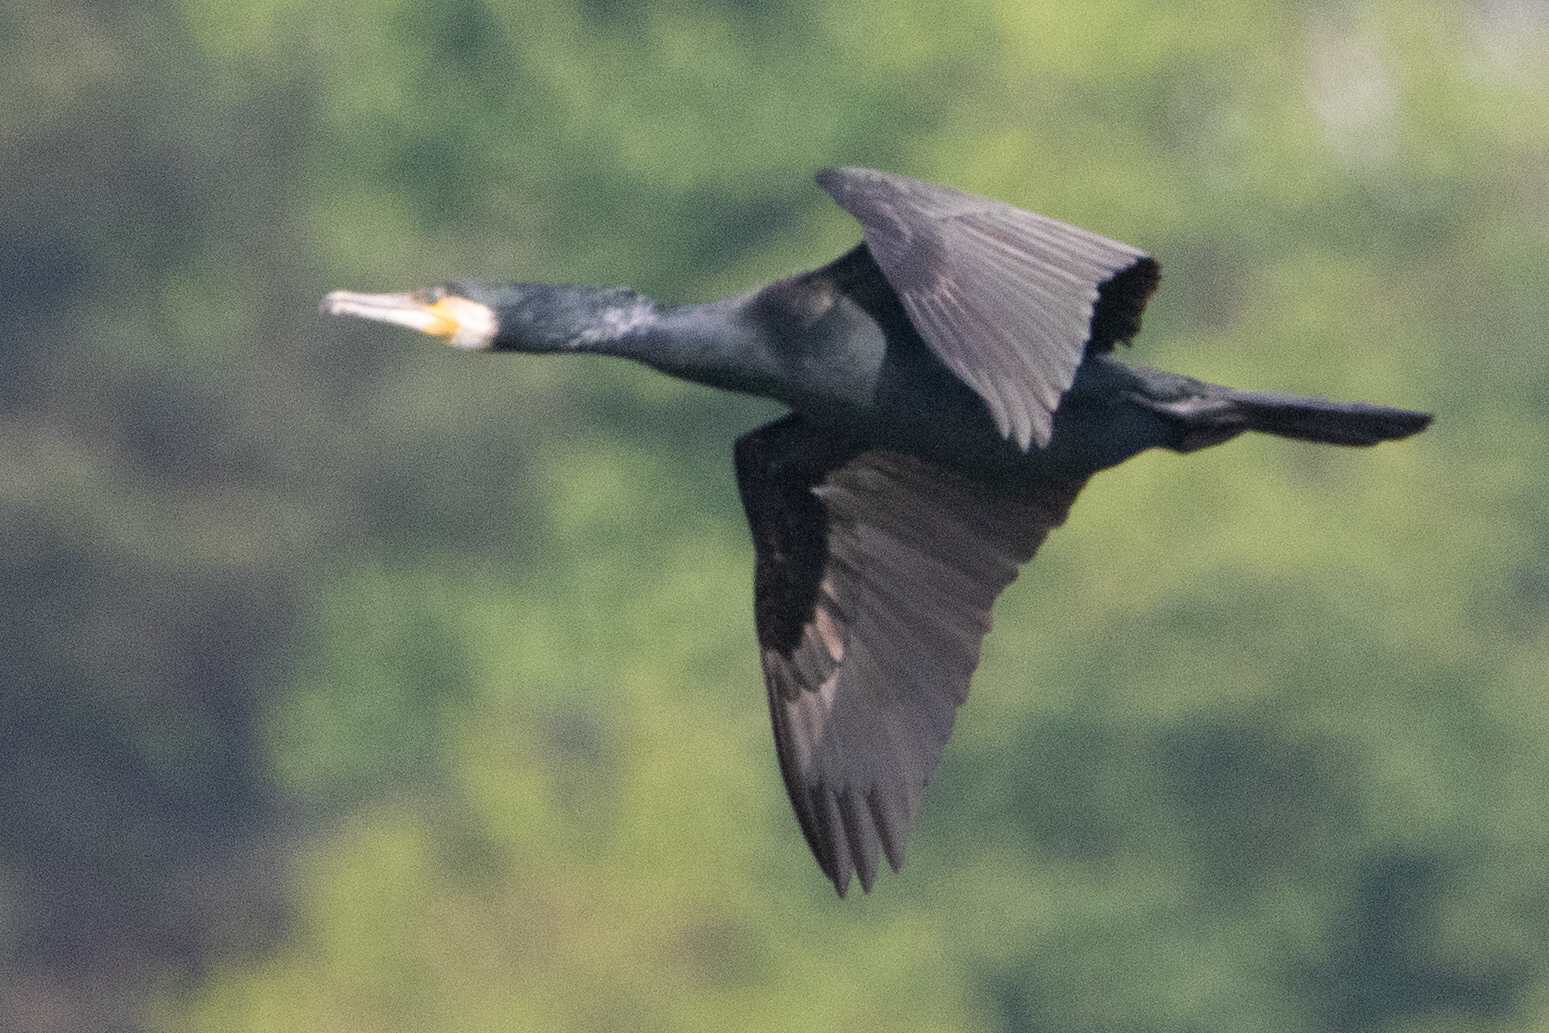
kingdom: Animalia
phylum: Chordata
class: Aves
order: Suliformes
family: Phalacrocoracidae
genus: Phalacrocorax
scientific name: Phalacrocorax carbo
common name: Great cormorant
